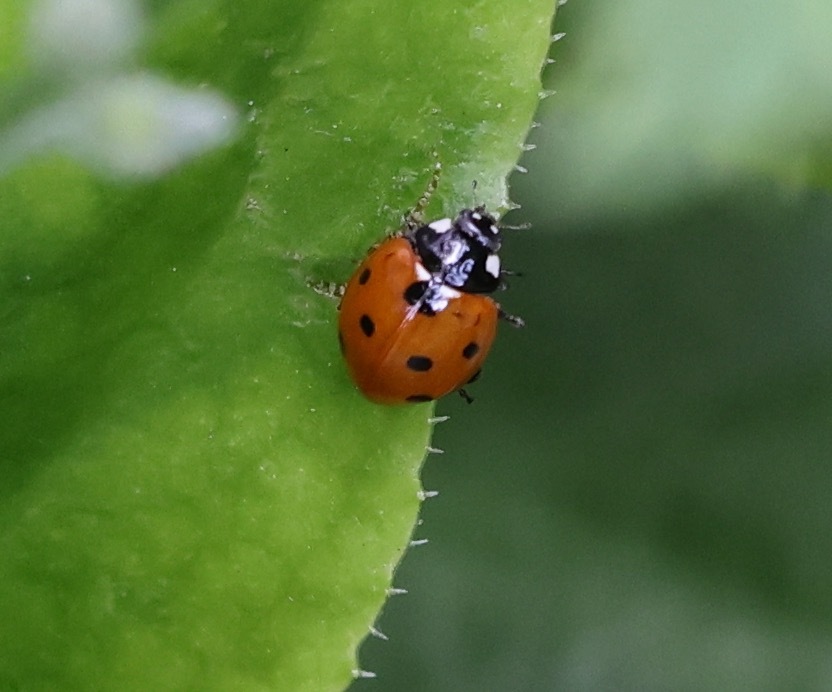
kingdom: Animalia
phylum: Arthropoda
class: Insecta
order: Coleoptera
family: Coccinellidae
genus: Coccinella
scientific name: Coccinella septempunctata
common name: Sevenspotted lady beetle
